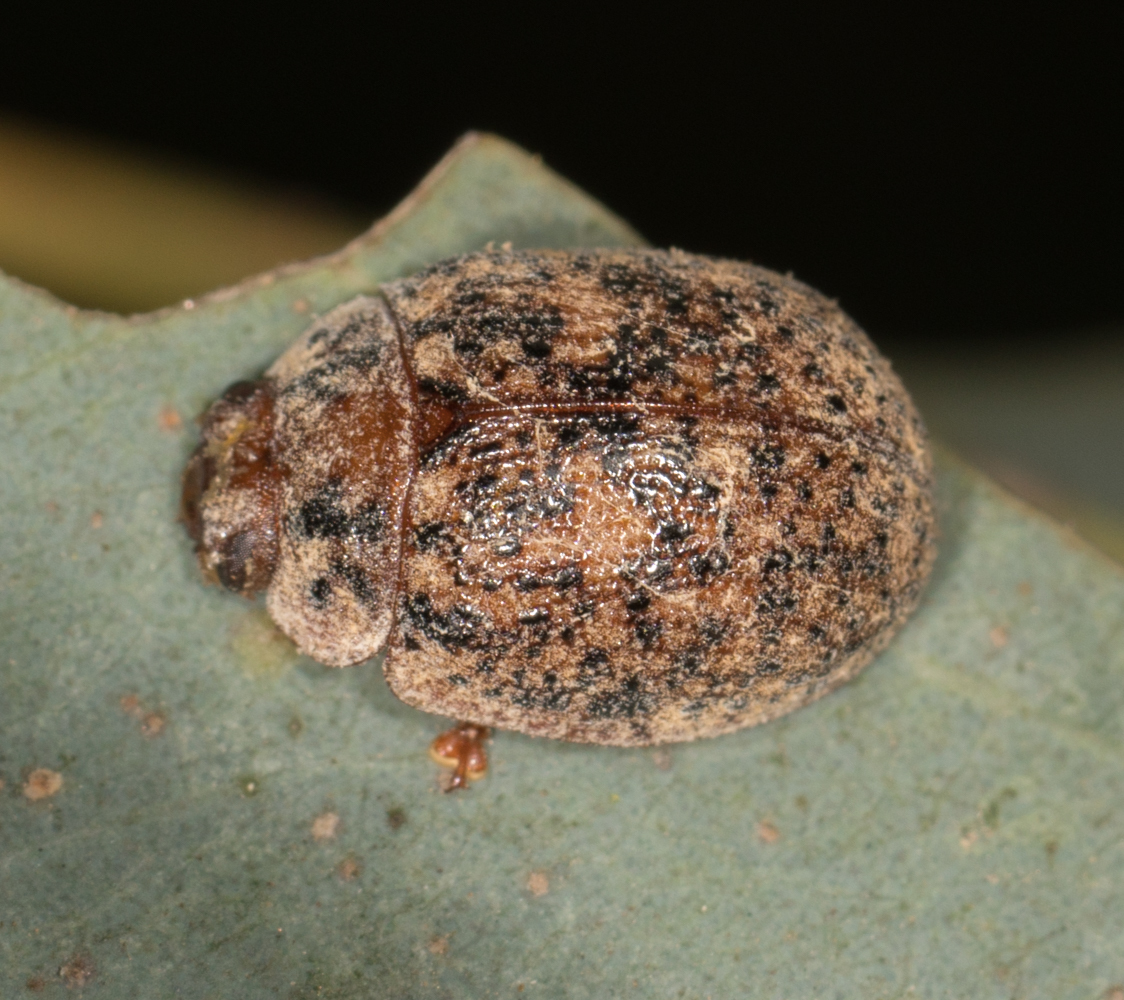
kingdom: Animalia
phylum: Arthropoda
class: Insecta
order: Coleoptera
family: Chrysomelidae
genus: Trachymela
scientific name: Trachymela sloanei
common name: Australian tortoise beetle
